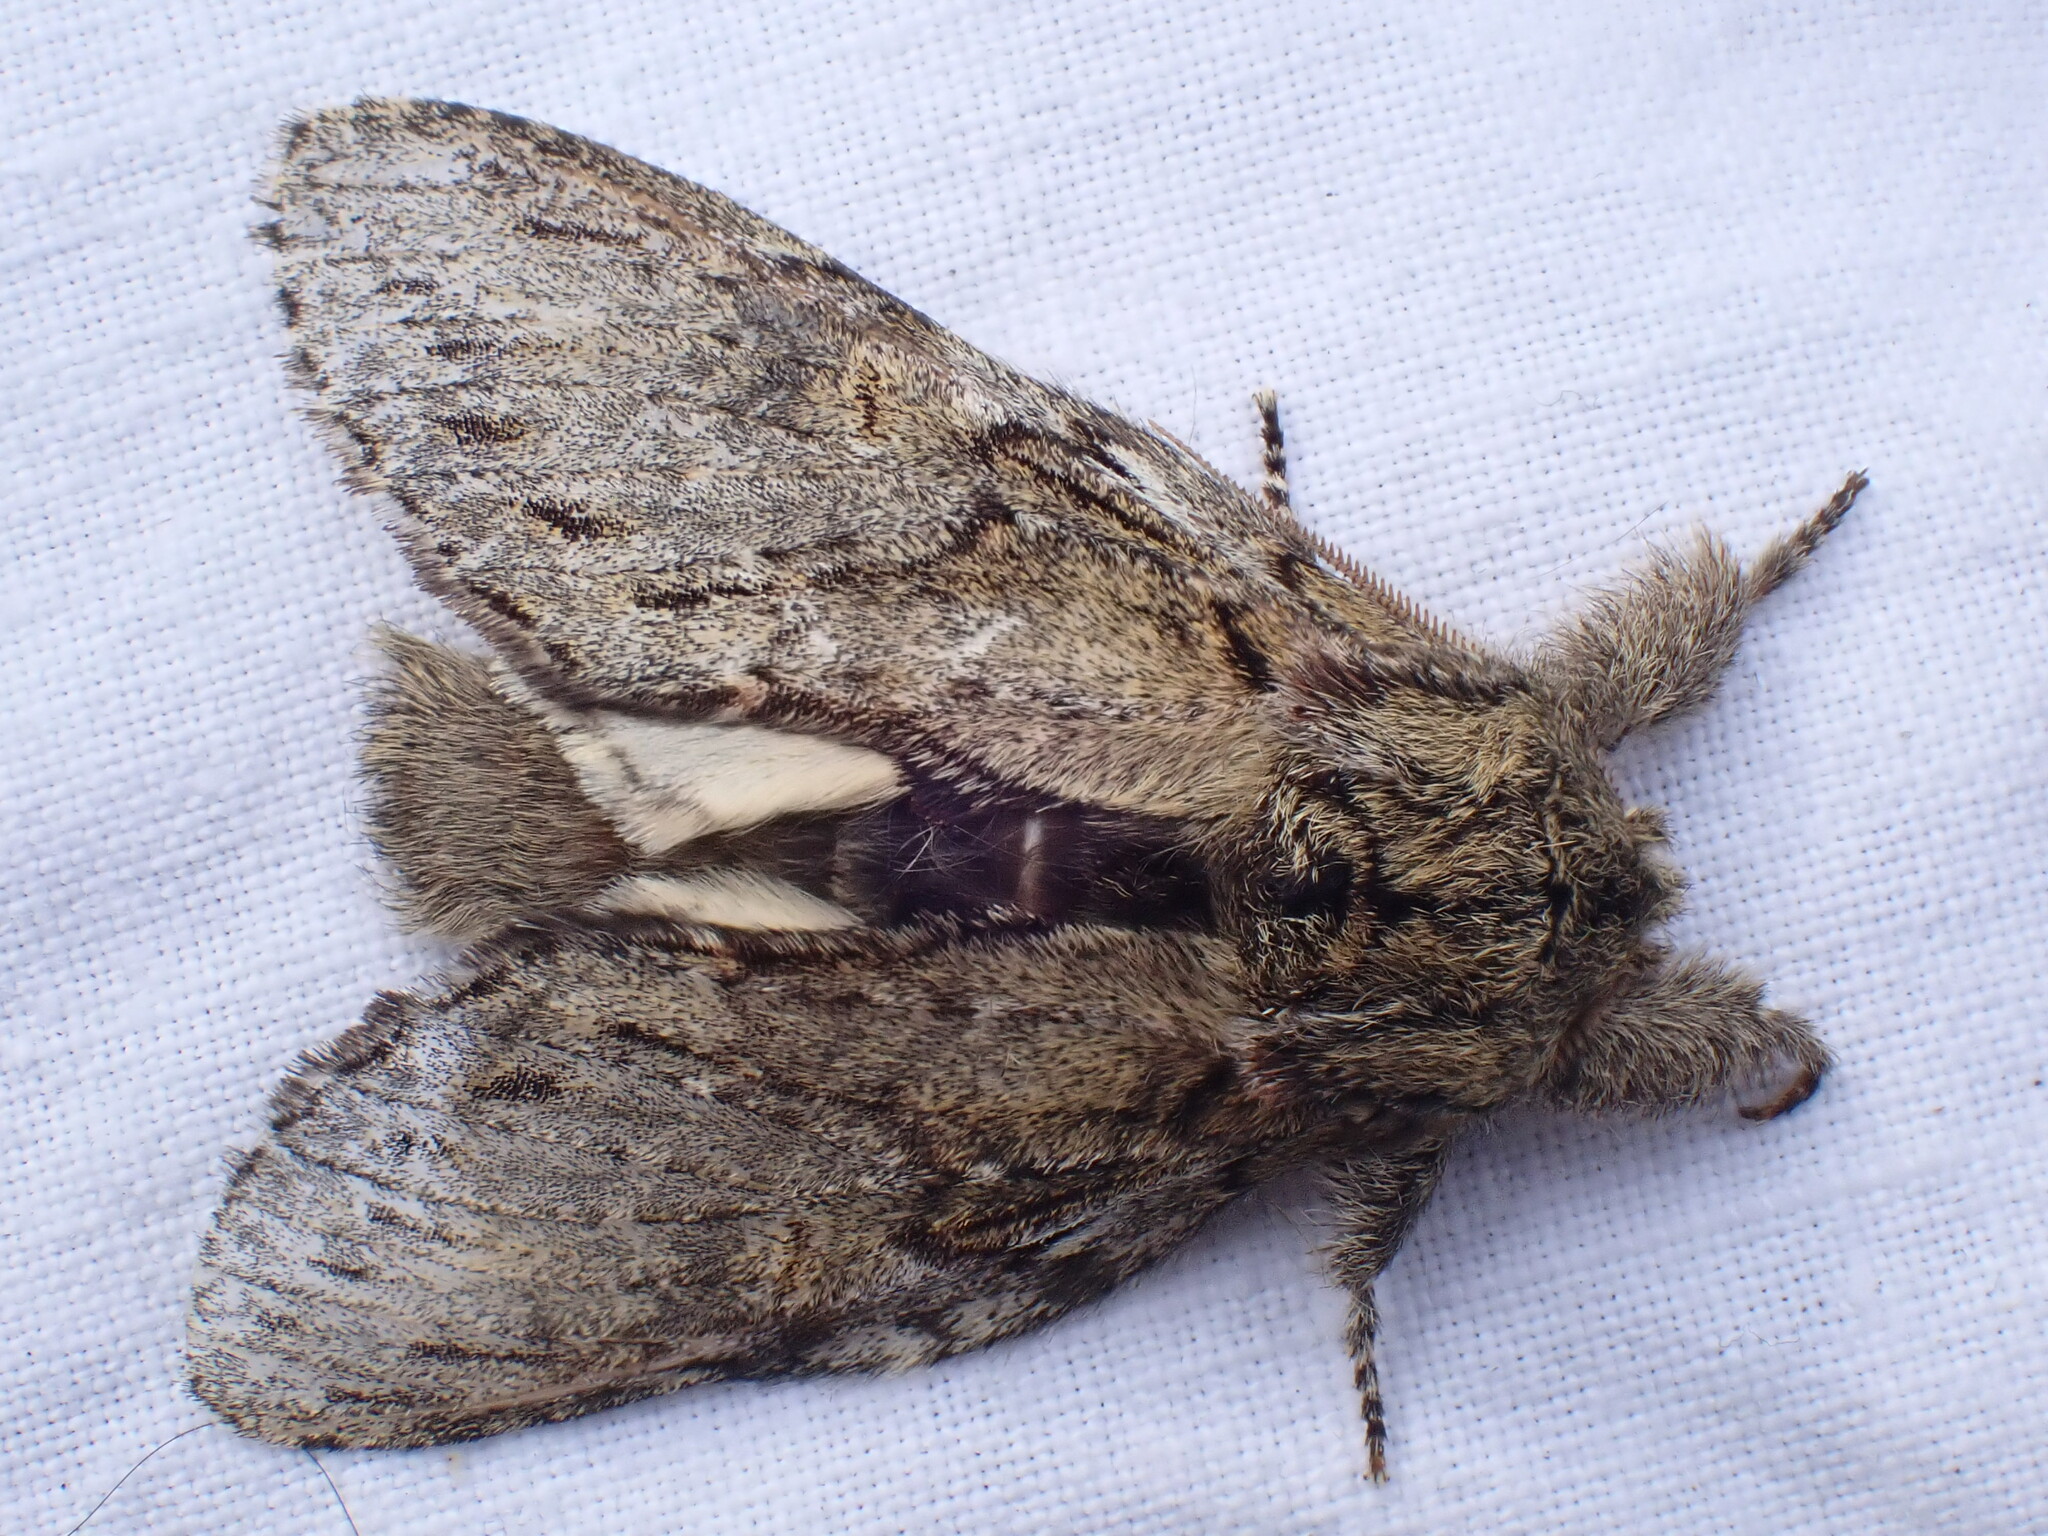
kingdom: Animalia
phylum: Arthropoda
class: Insecta
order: Lepidoptera
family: Notodontidae
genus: Peridea
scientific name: Peridea anceps
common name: Great prominent
